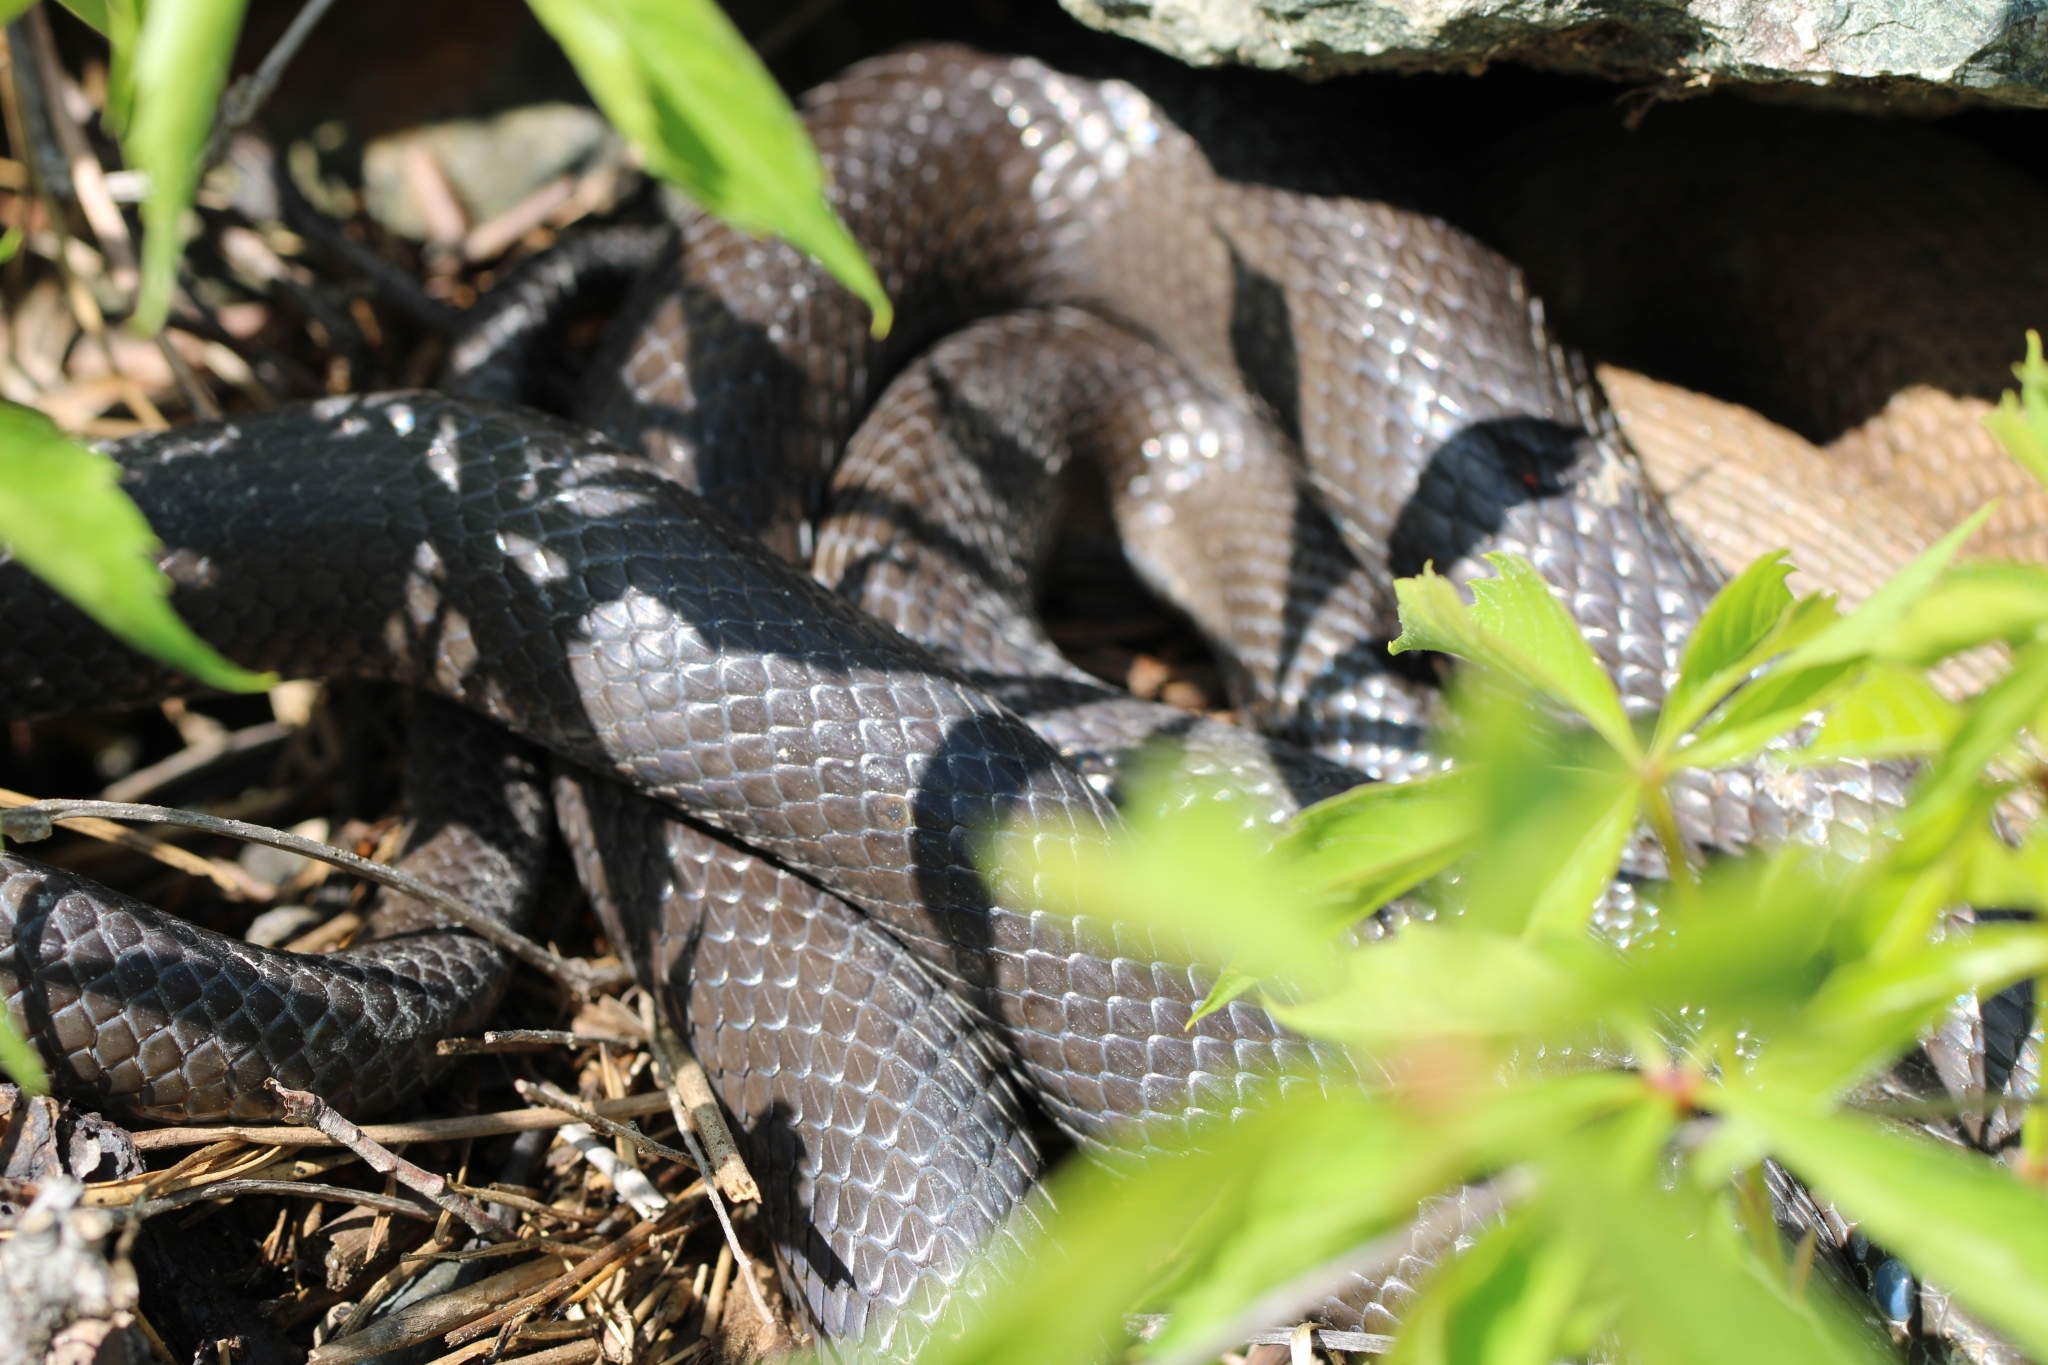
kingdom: Animalia
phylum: Chordata
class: Squamata
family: Colubridae
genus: Pantherophis
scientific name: Pantherophis alleghaniensis
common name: Eastern rat snake
